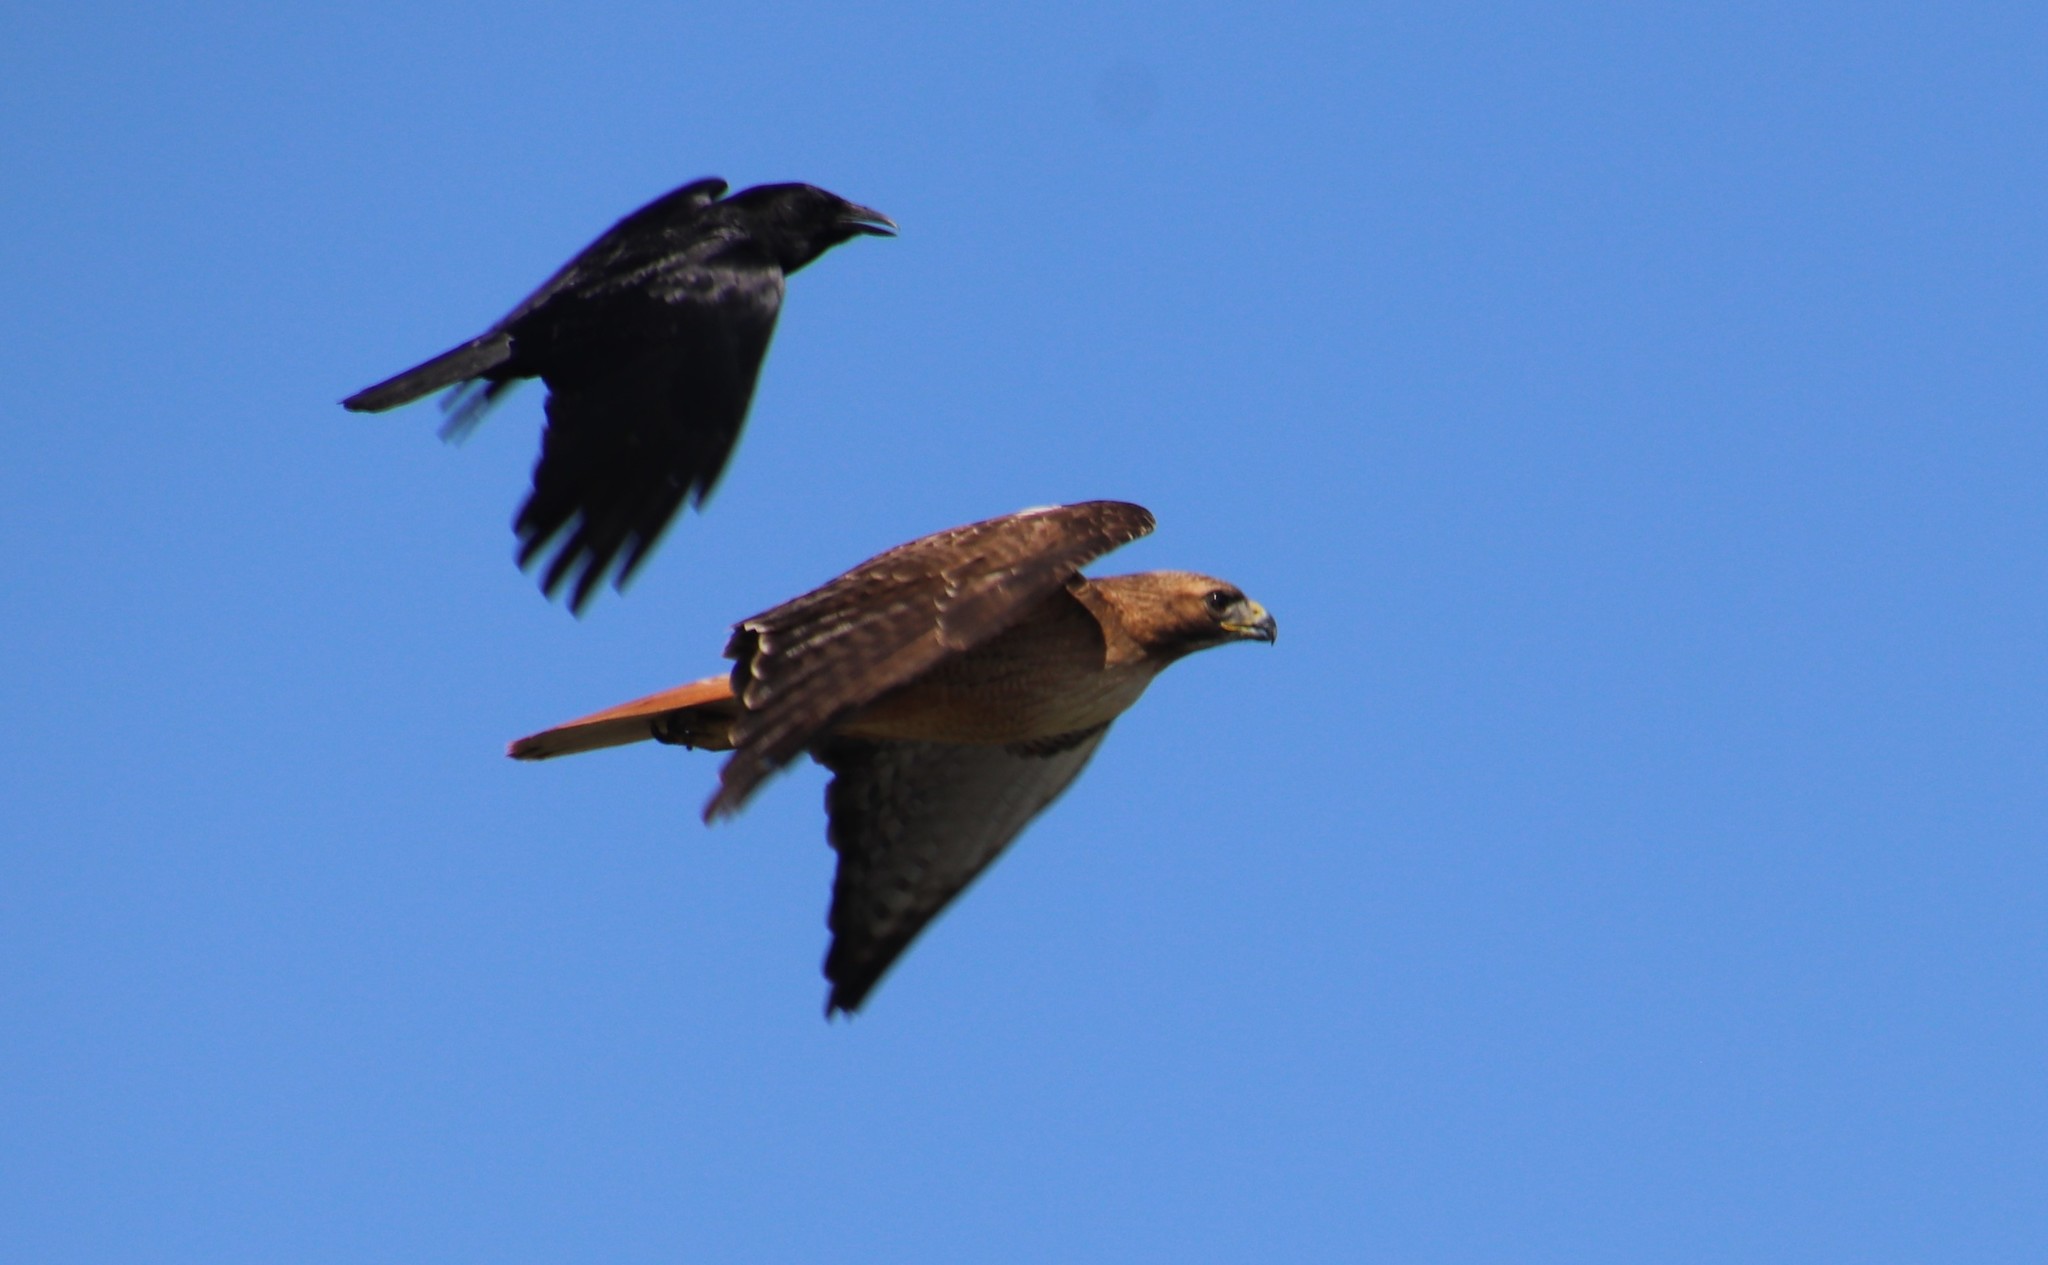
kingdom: Animalia
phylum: Chordata
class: Aves
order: Accipitriformes
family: Accipitridae
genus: Buteo
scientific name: Buteo jamaicensis
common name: Red-tailed hawk
